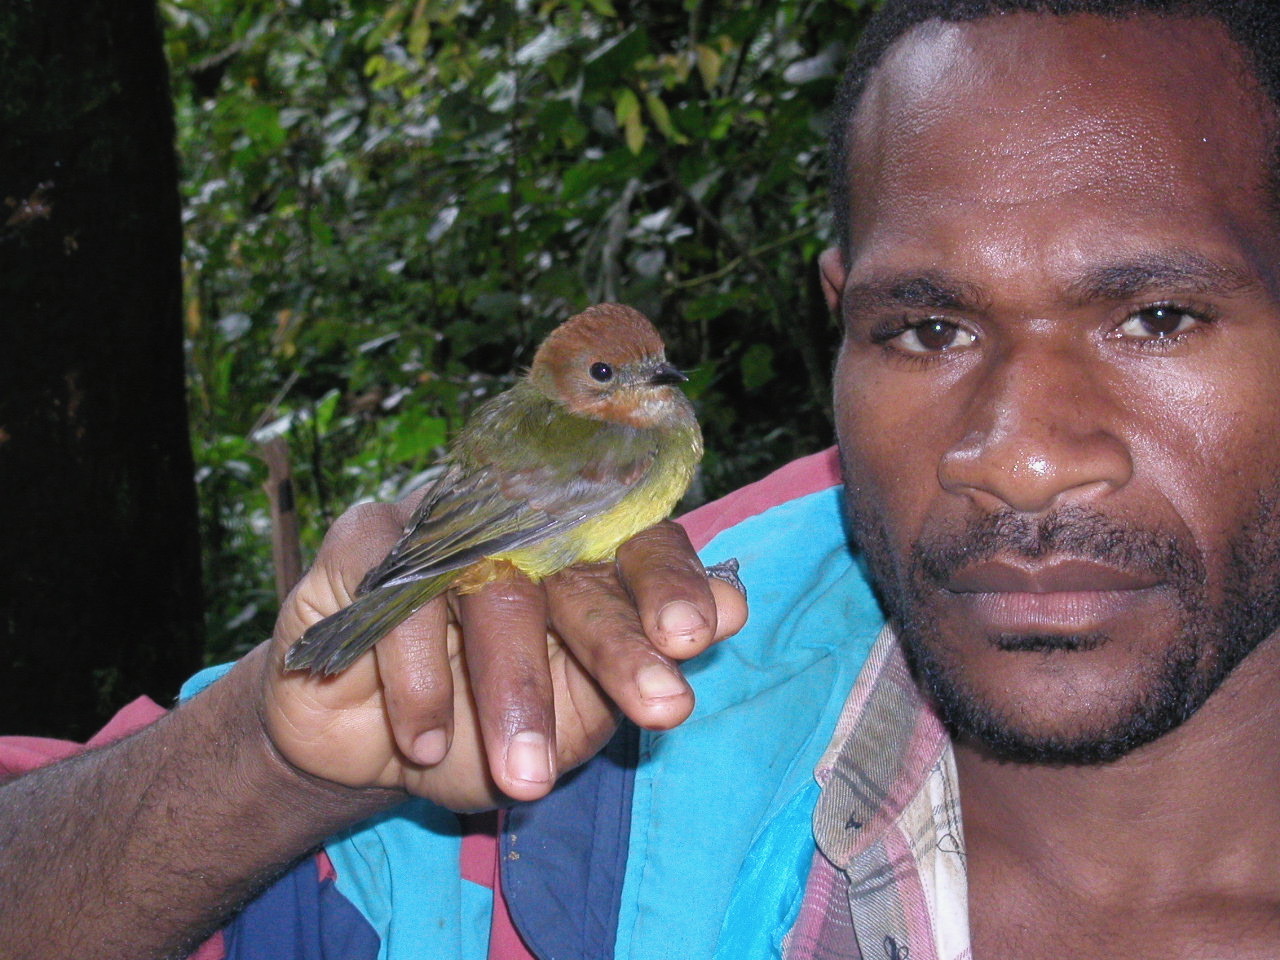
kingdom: Animalia
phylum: Chordata
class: Aves
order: Passeriformes
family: Pachycephalidae
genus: Pachycephala
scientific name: Pachycephala soror
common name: Sclater's whistler
